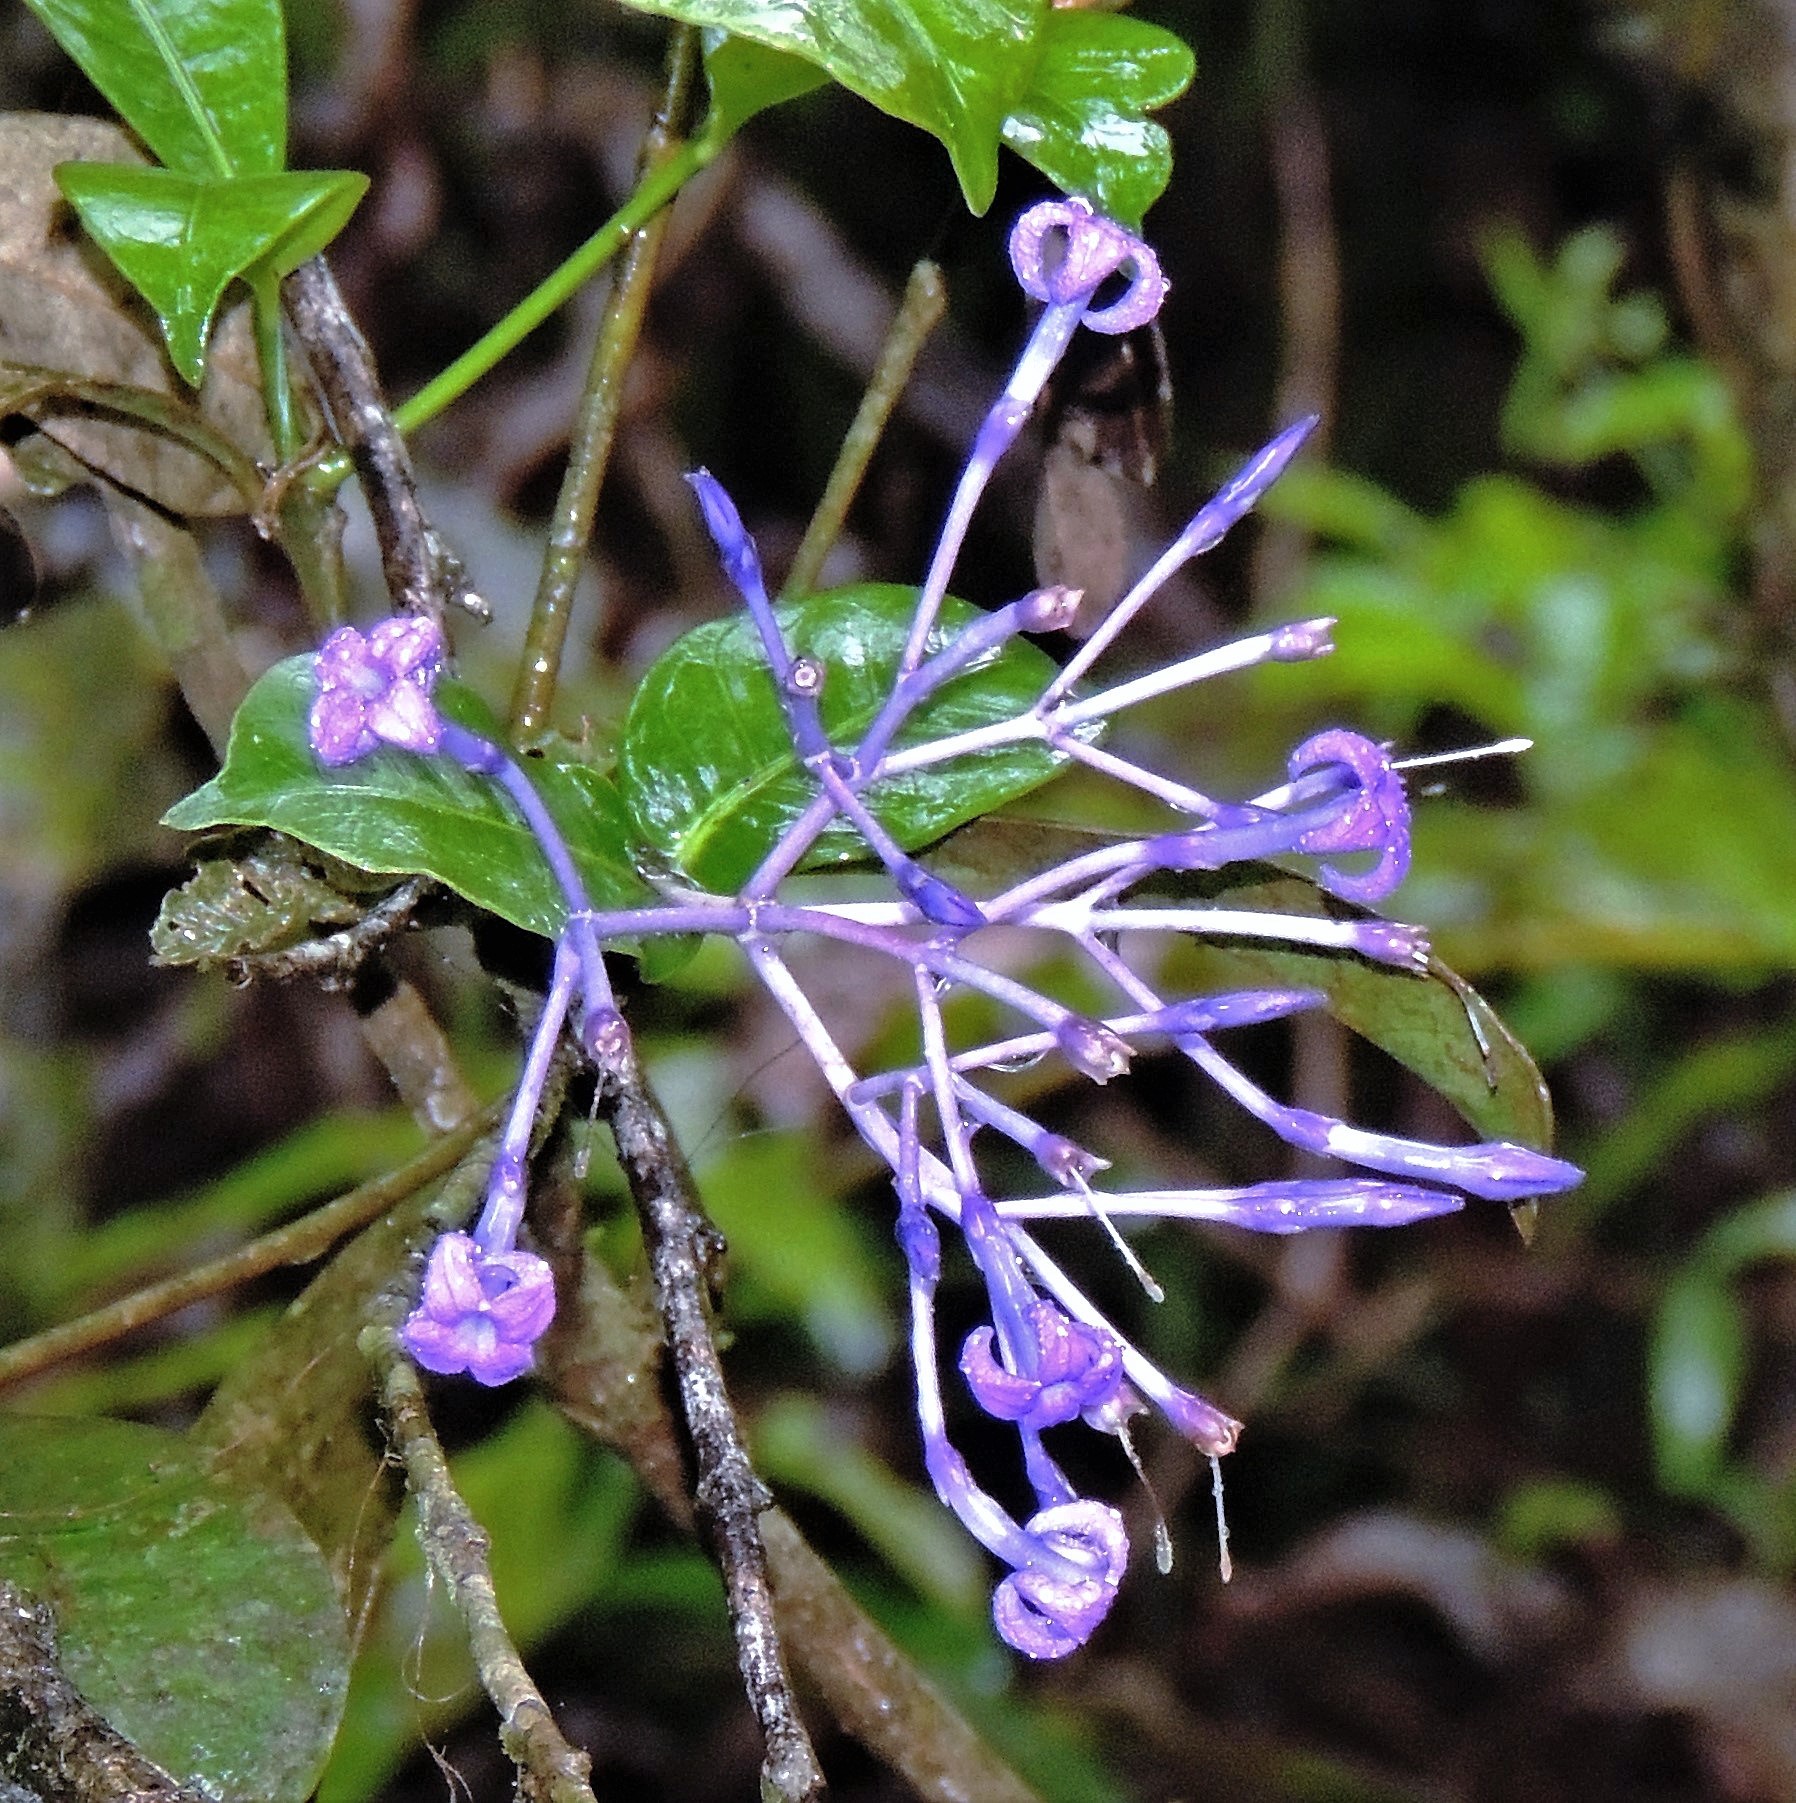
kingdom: Plantae
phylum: Tracheophyta
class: Magnoliopsida
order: Gentianales
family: Rubiaceae
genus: Faramea
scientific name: Faramea hyacinthina
